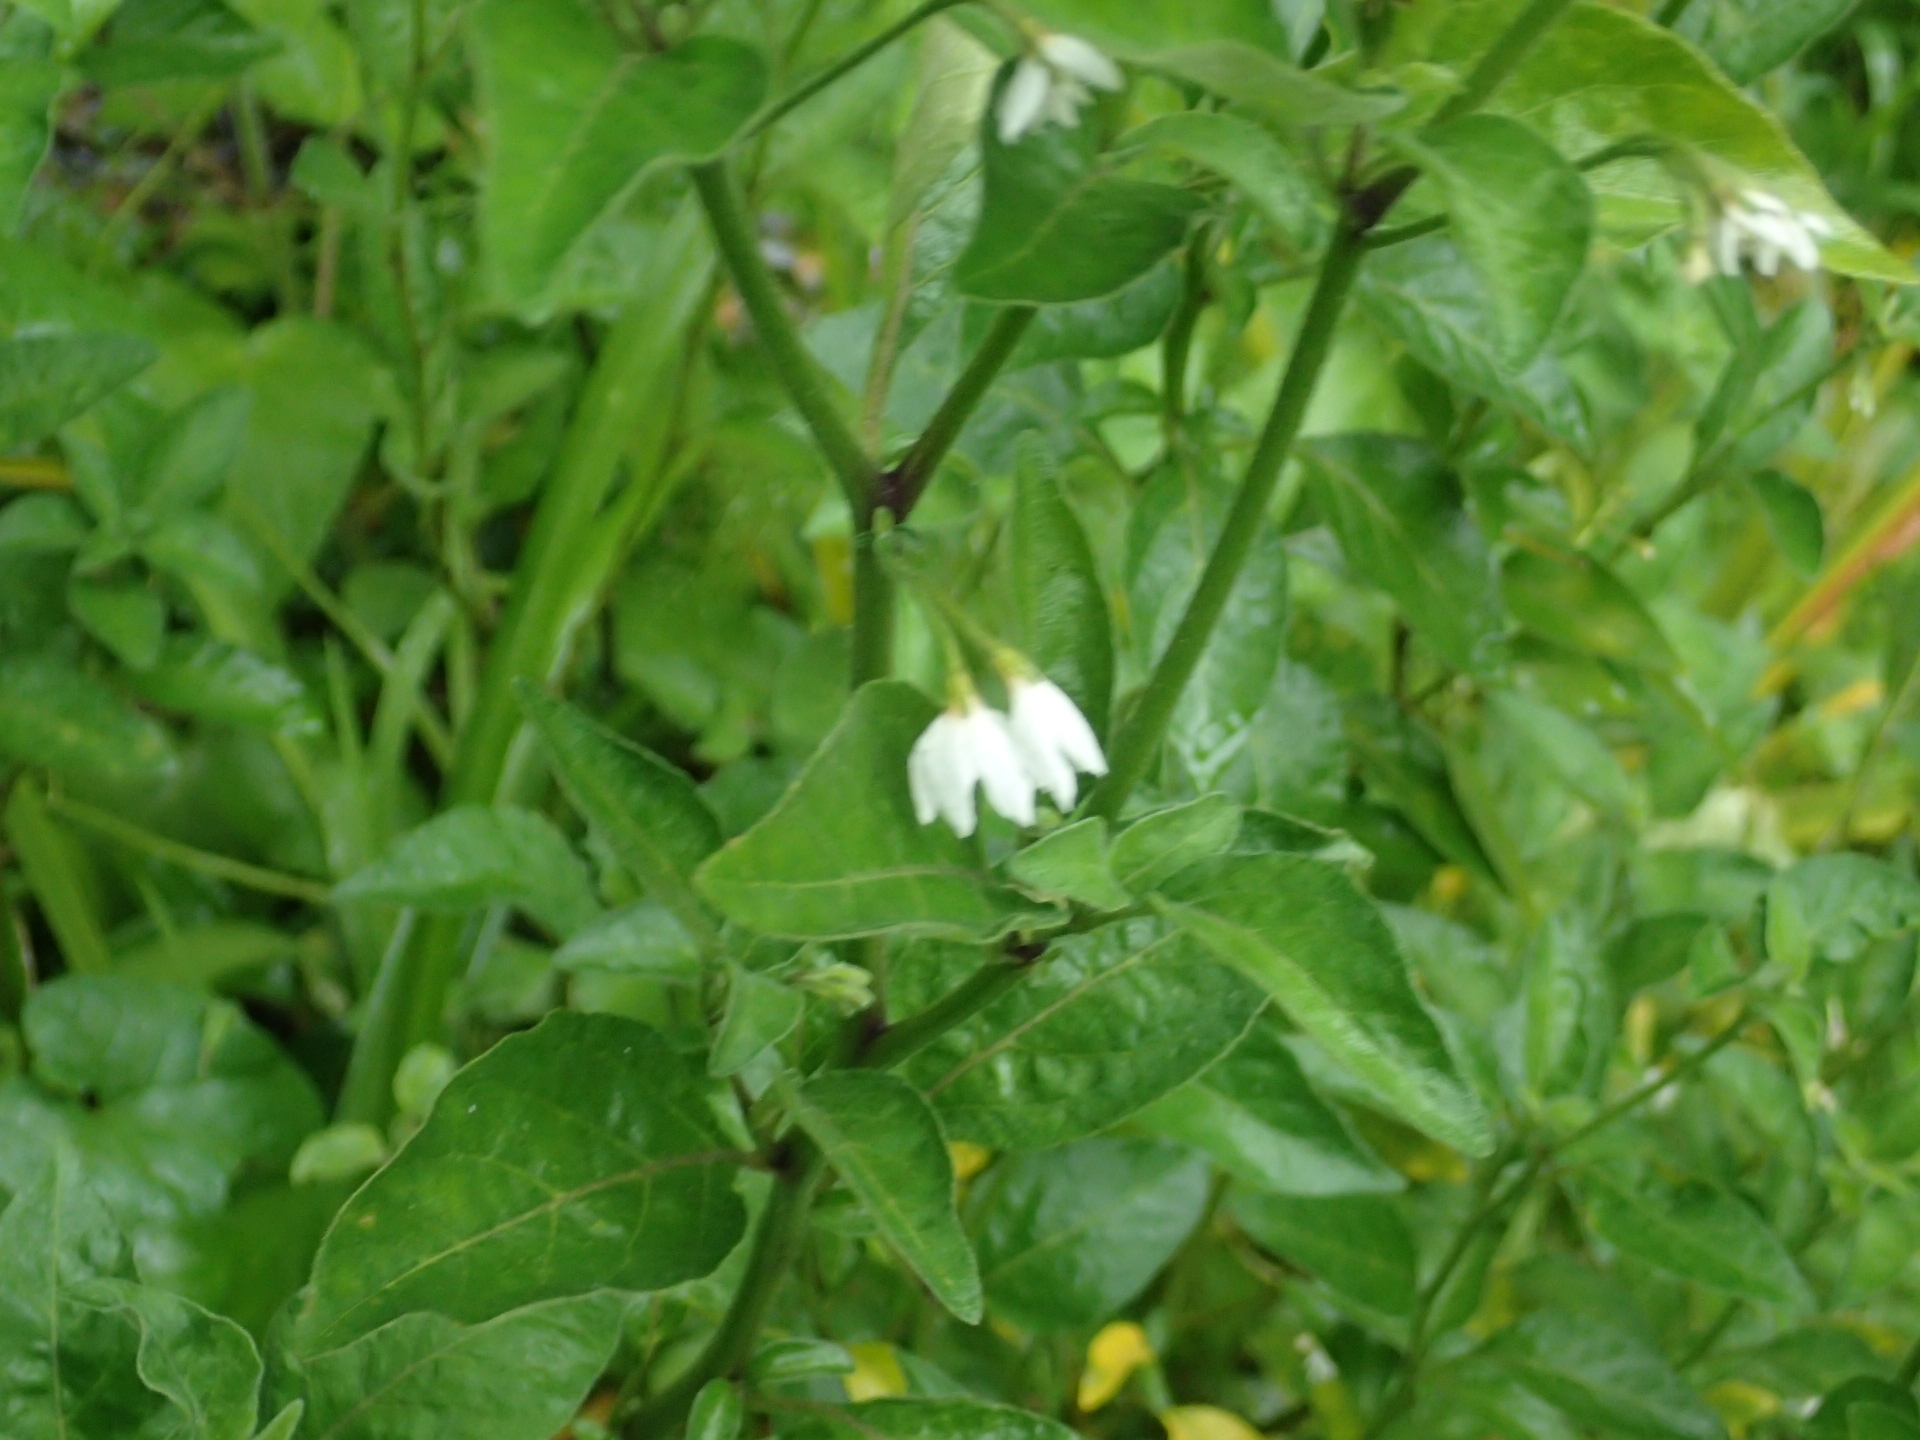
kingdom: Plantae
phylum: Tracheophyta
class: Magnoliopsida
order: Solanales
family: Solanaceae
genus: Solanum
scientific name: Solanum chenopodioides
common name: Tall nightshade
